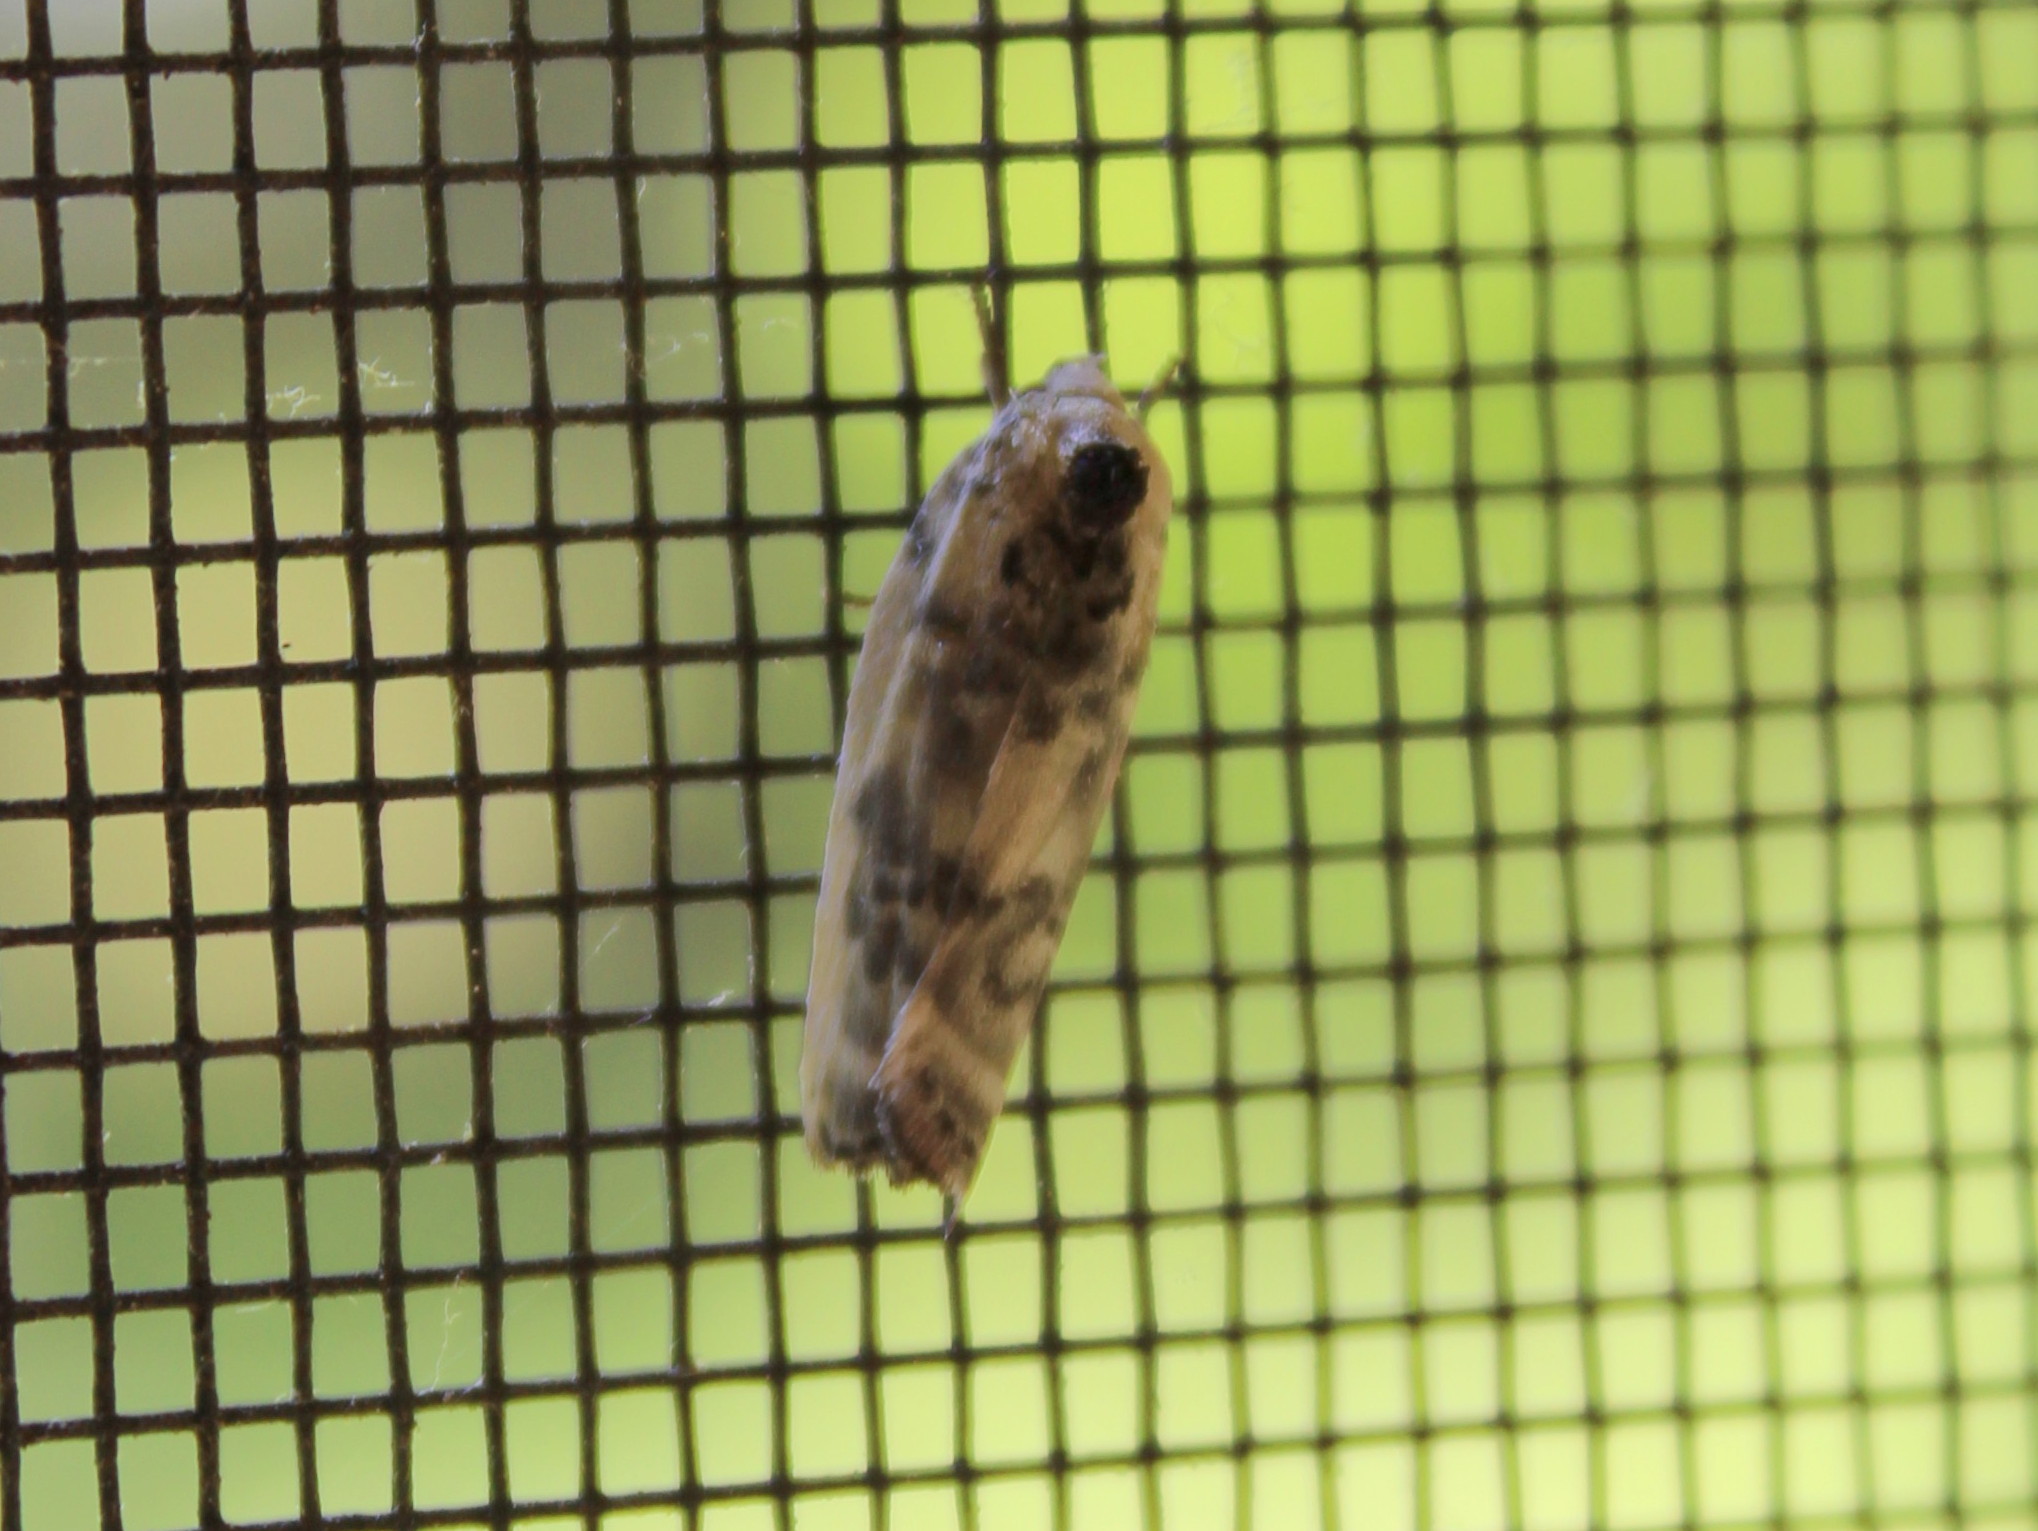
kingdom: Animalia
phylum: Arthropoda
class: Insecta
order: Lepidoptera
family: Depressariidae
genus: Antaeotricha
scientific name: Antaeotricha schlaegeri
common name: Schlaeger's fruitworm moth
